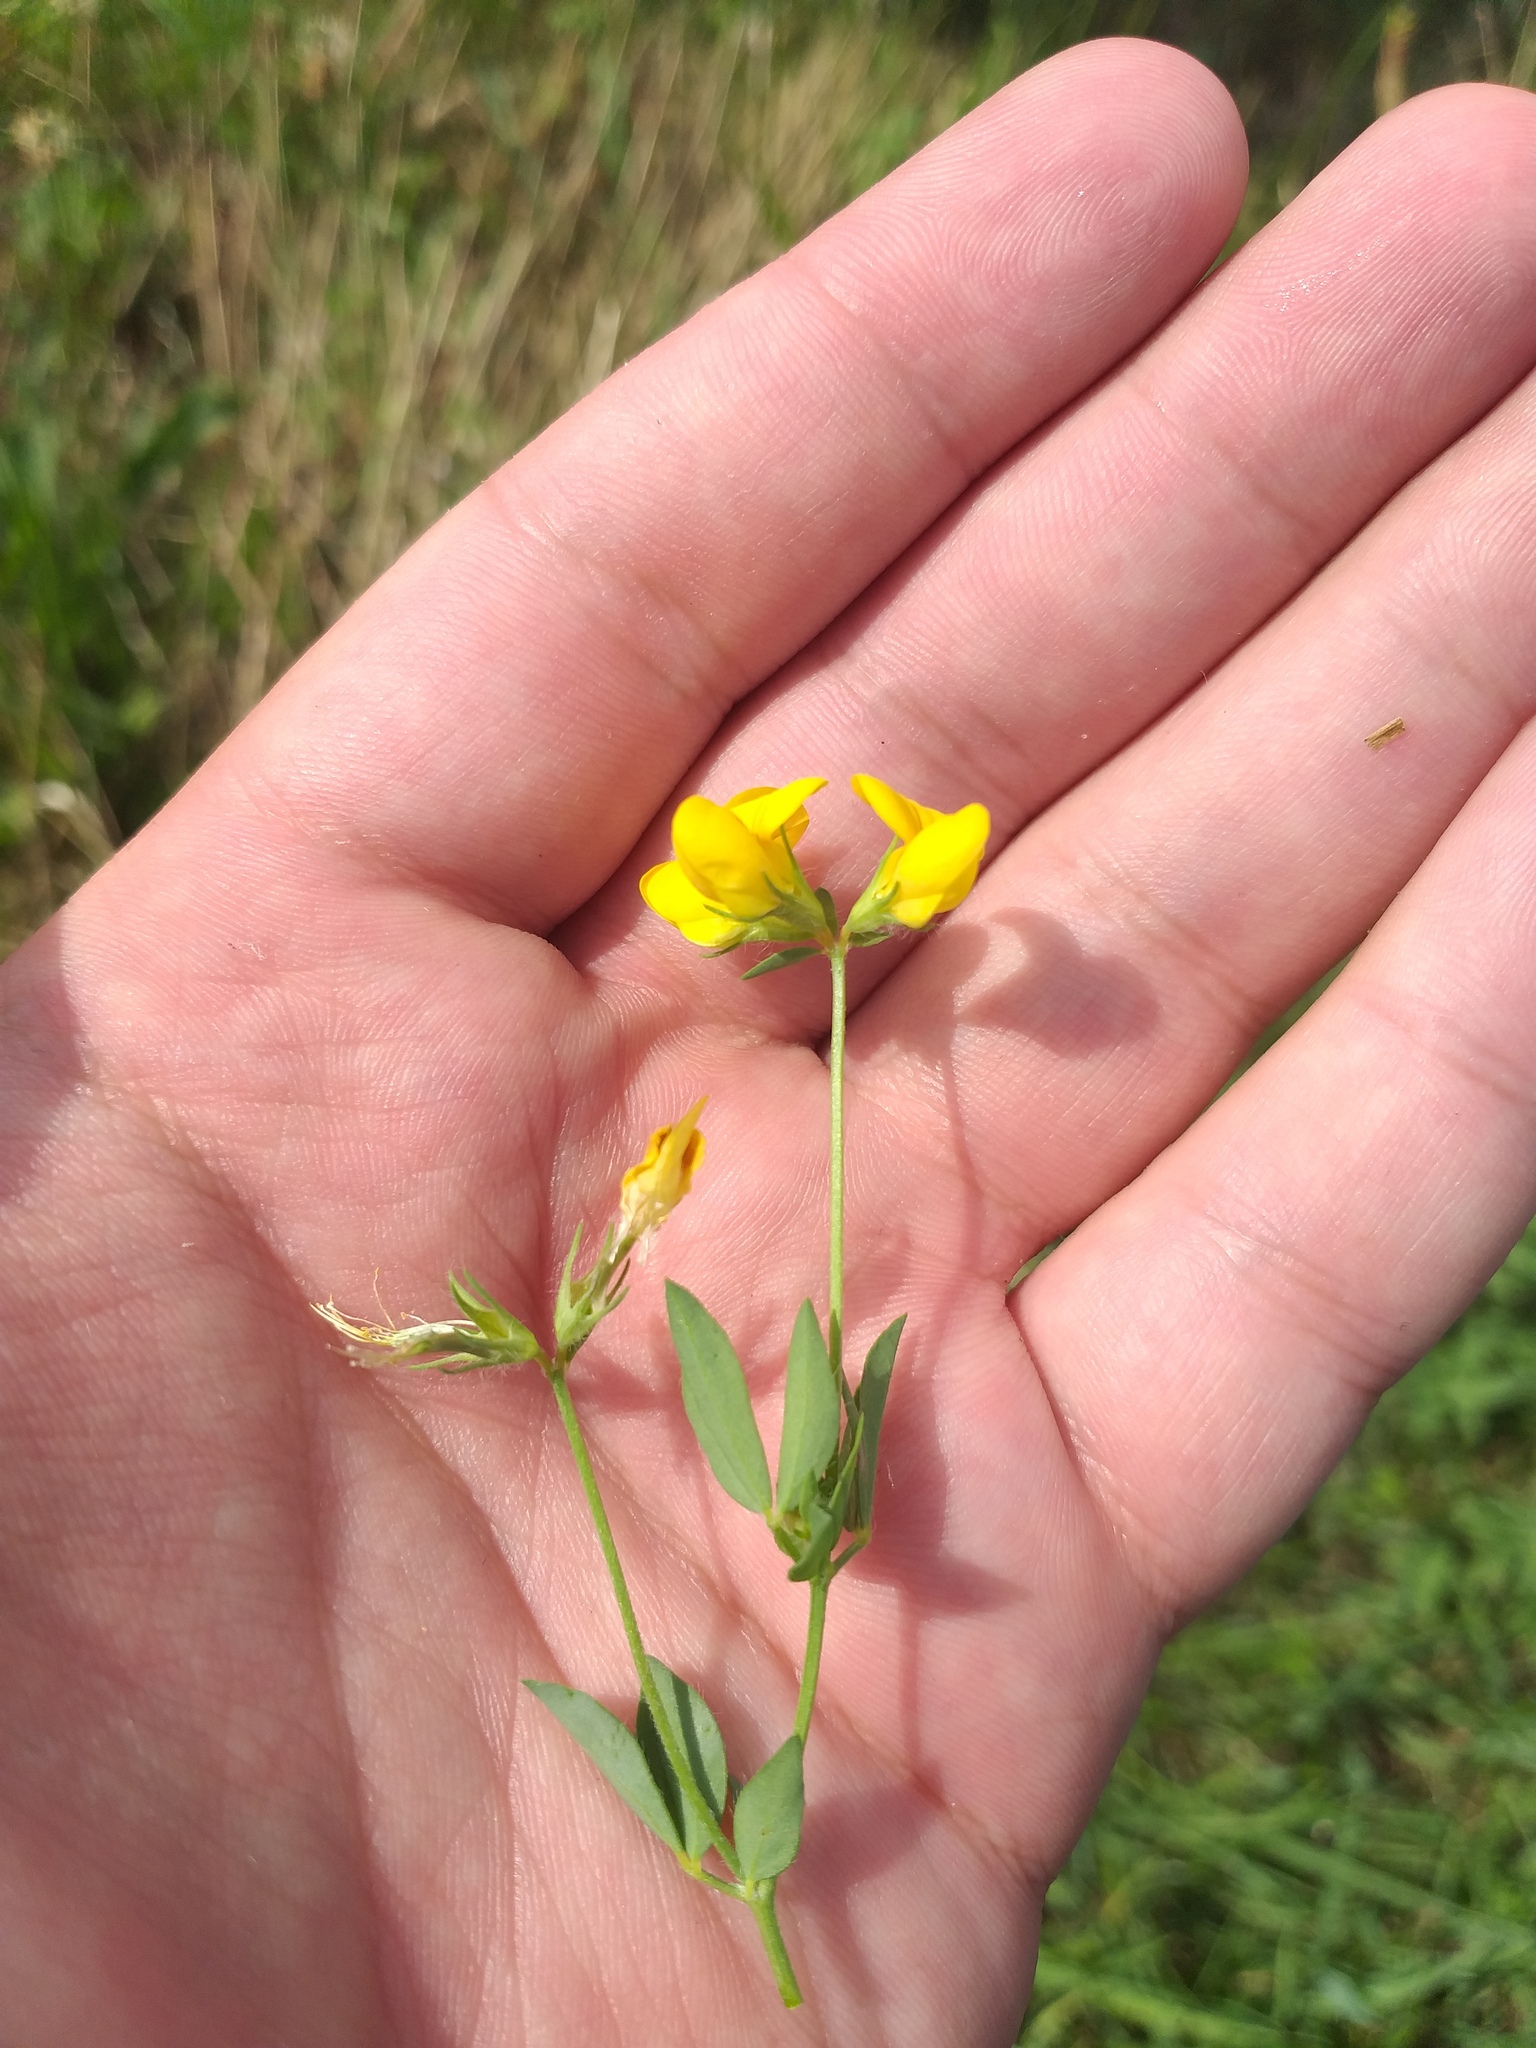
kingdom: Plantae
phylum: Tracheophyta
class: Magnoliopsida
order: Fabales
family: Fabaceae
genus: Lotus
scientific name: Lotus corniculatus
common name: Common bird's-foot-trefoil
